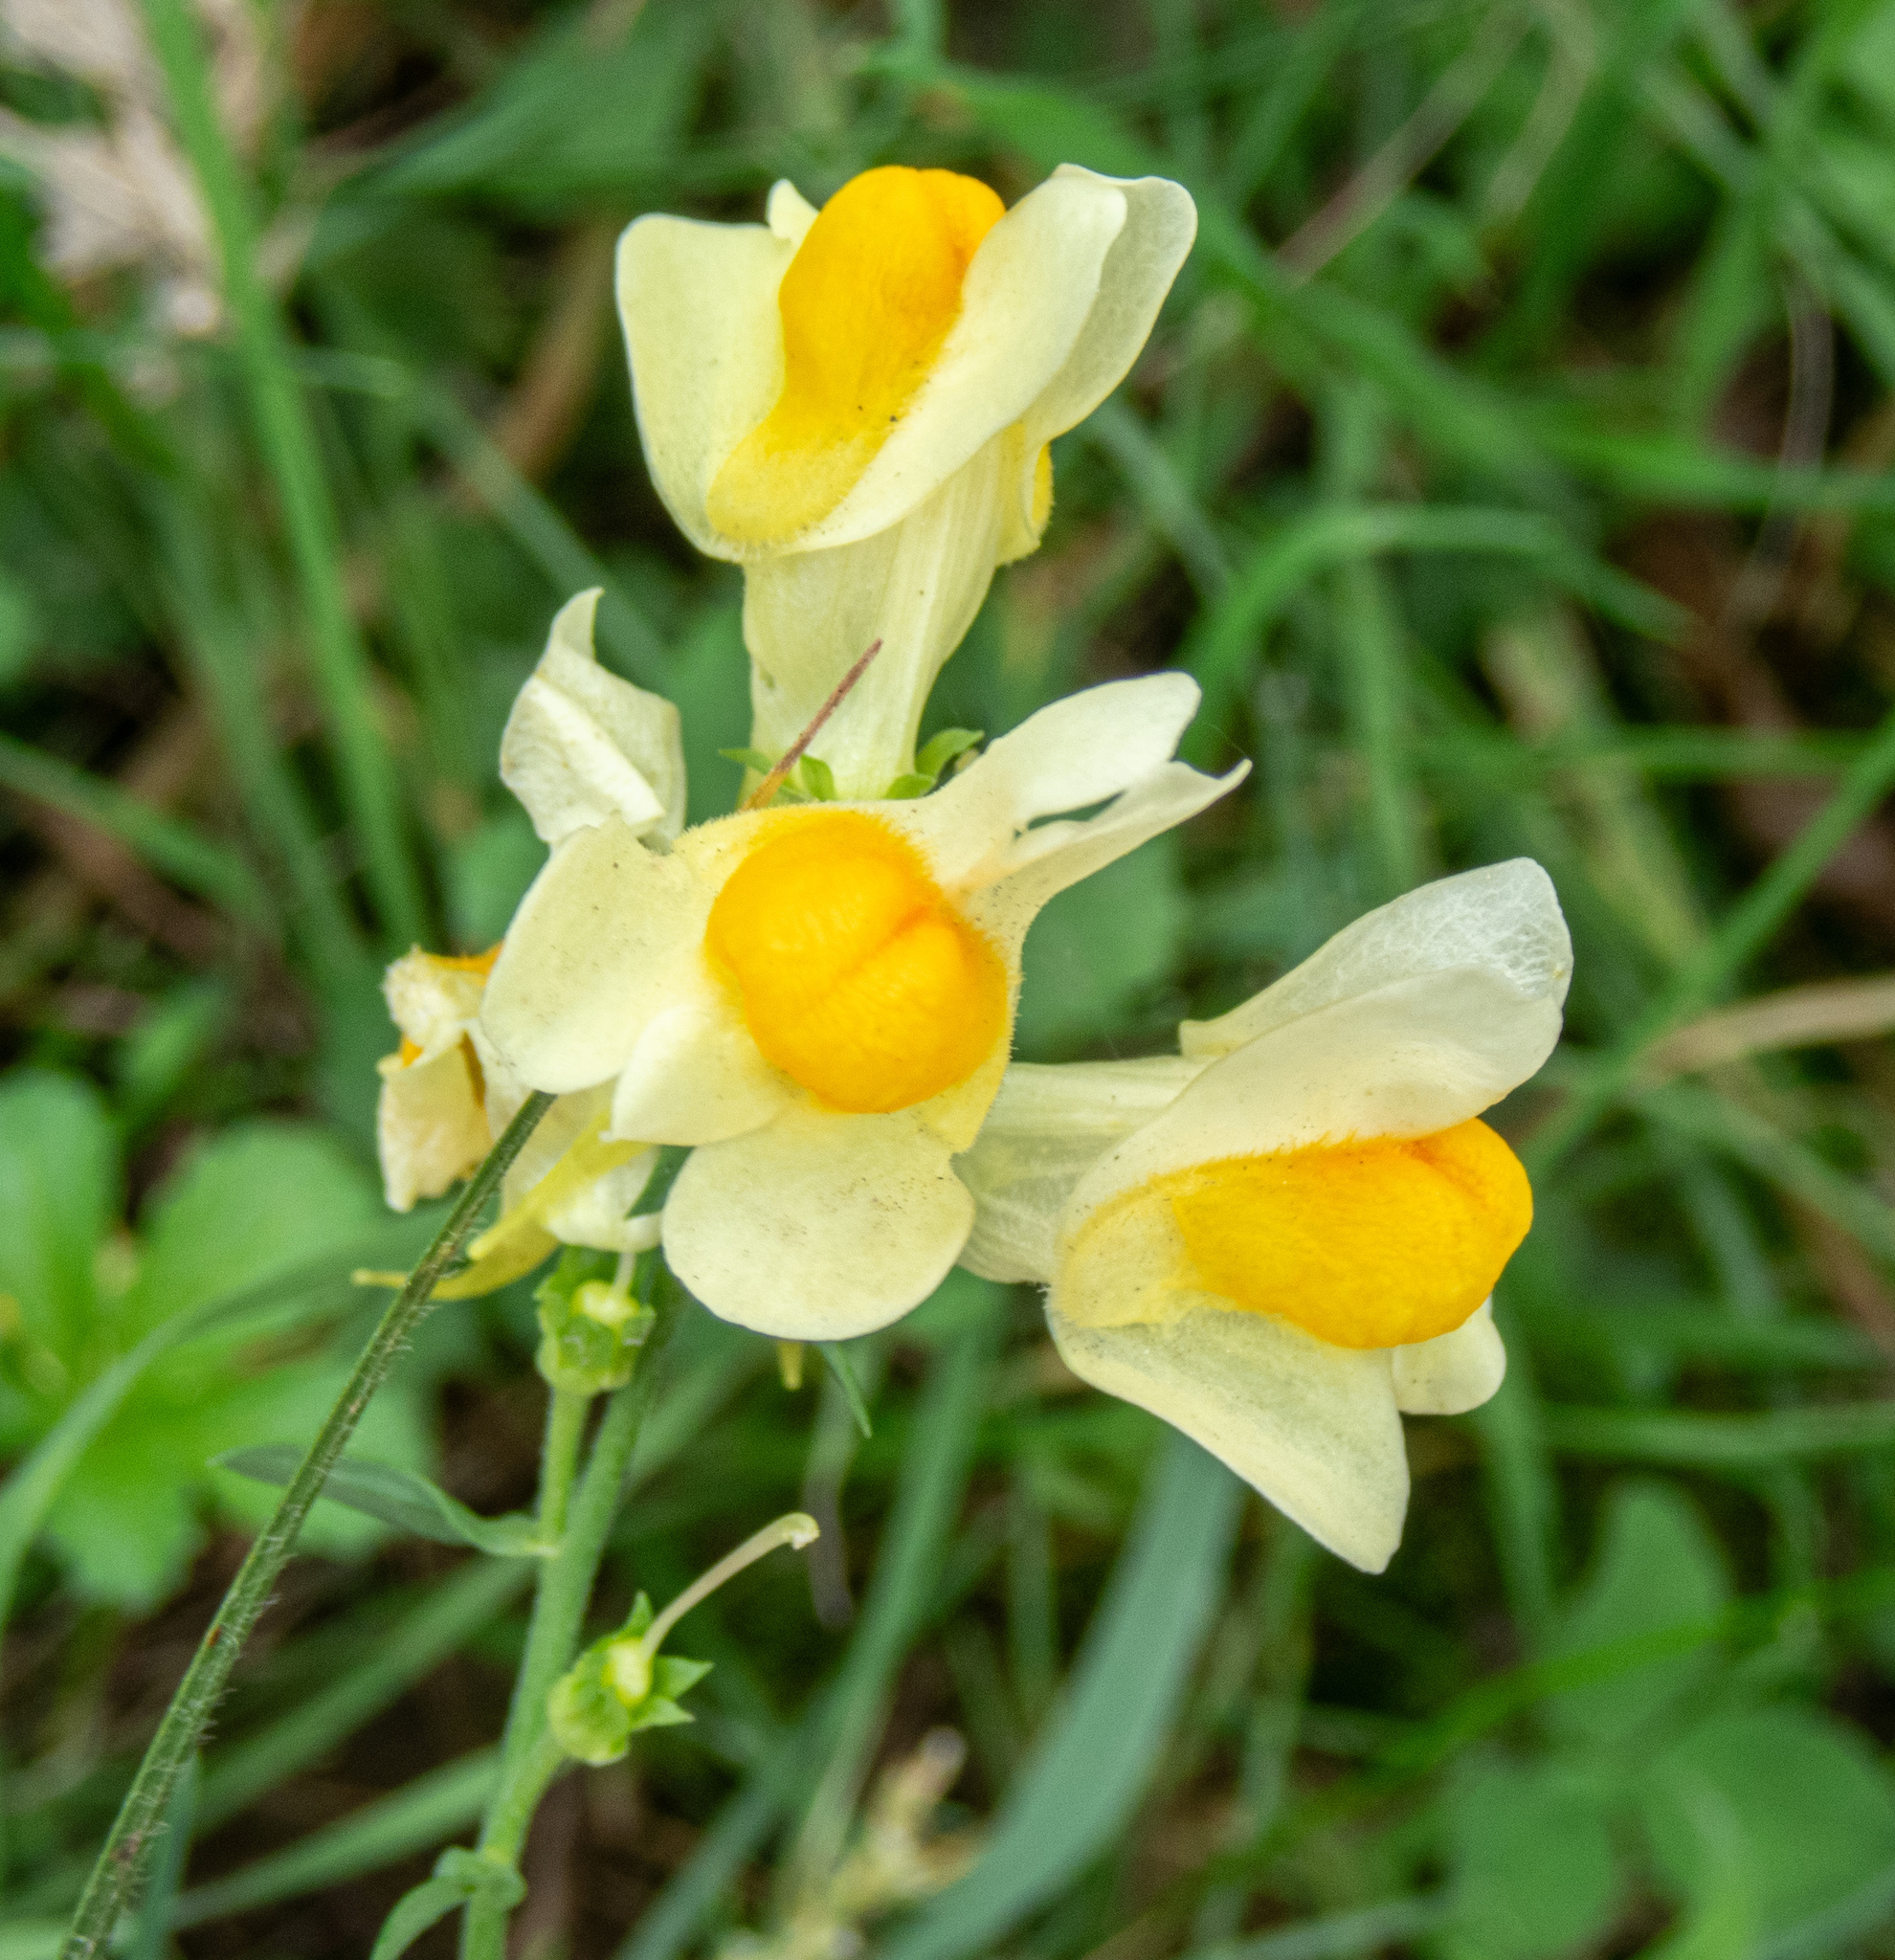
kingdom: Plantae
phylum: Tracheophyta
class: Magnoliopsida
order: Lamiales
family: Plantaginaceae
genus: Linaria
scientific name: Linaria vulgaris
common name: Butter and eggs
